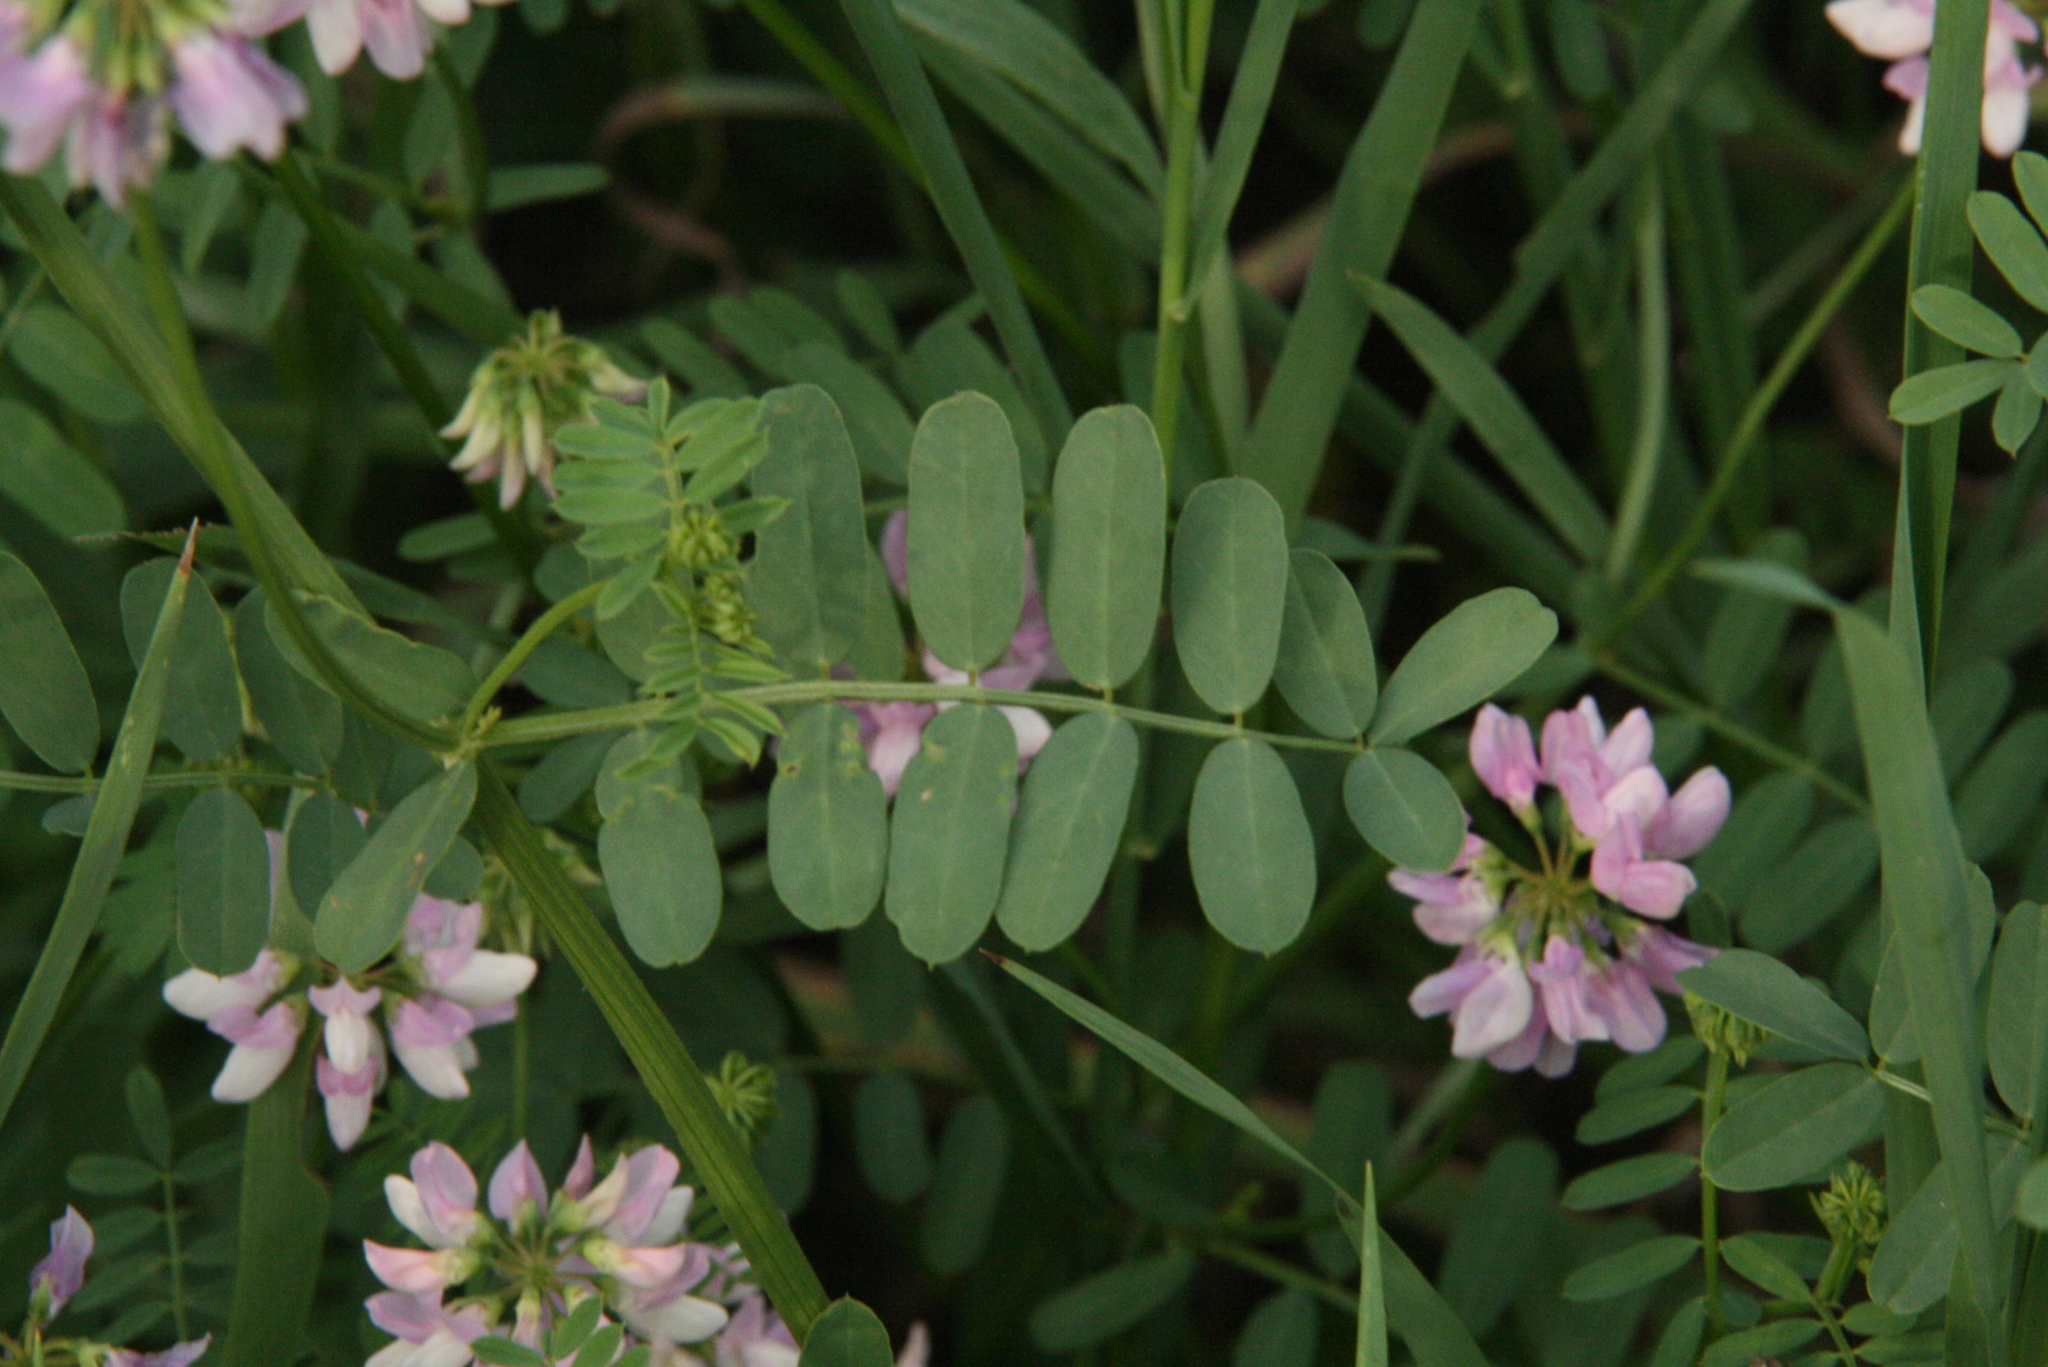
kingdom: Plantae
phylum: Tracheophyta
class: Magnoliopsida
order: Fabales
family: Fabaceae
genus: Coronilla
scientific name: Coronilla varia
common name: Crownvetch
